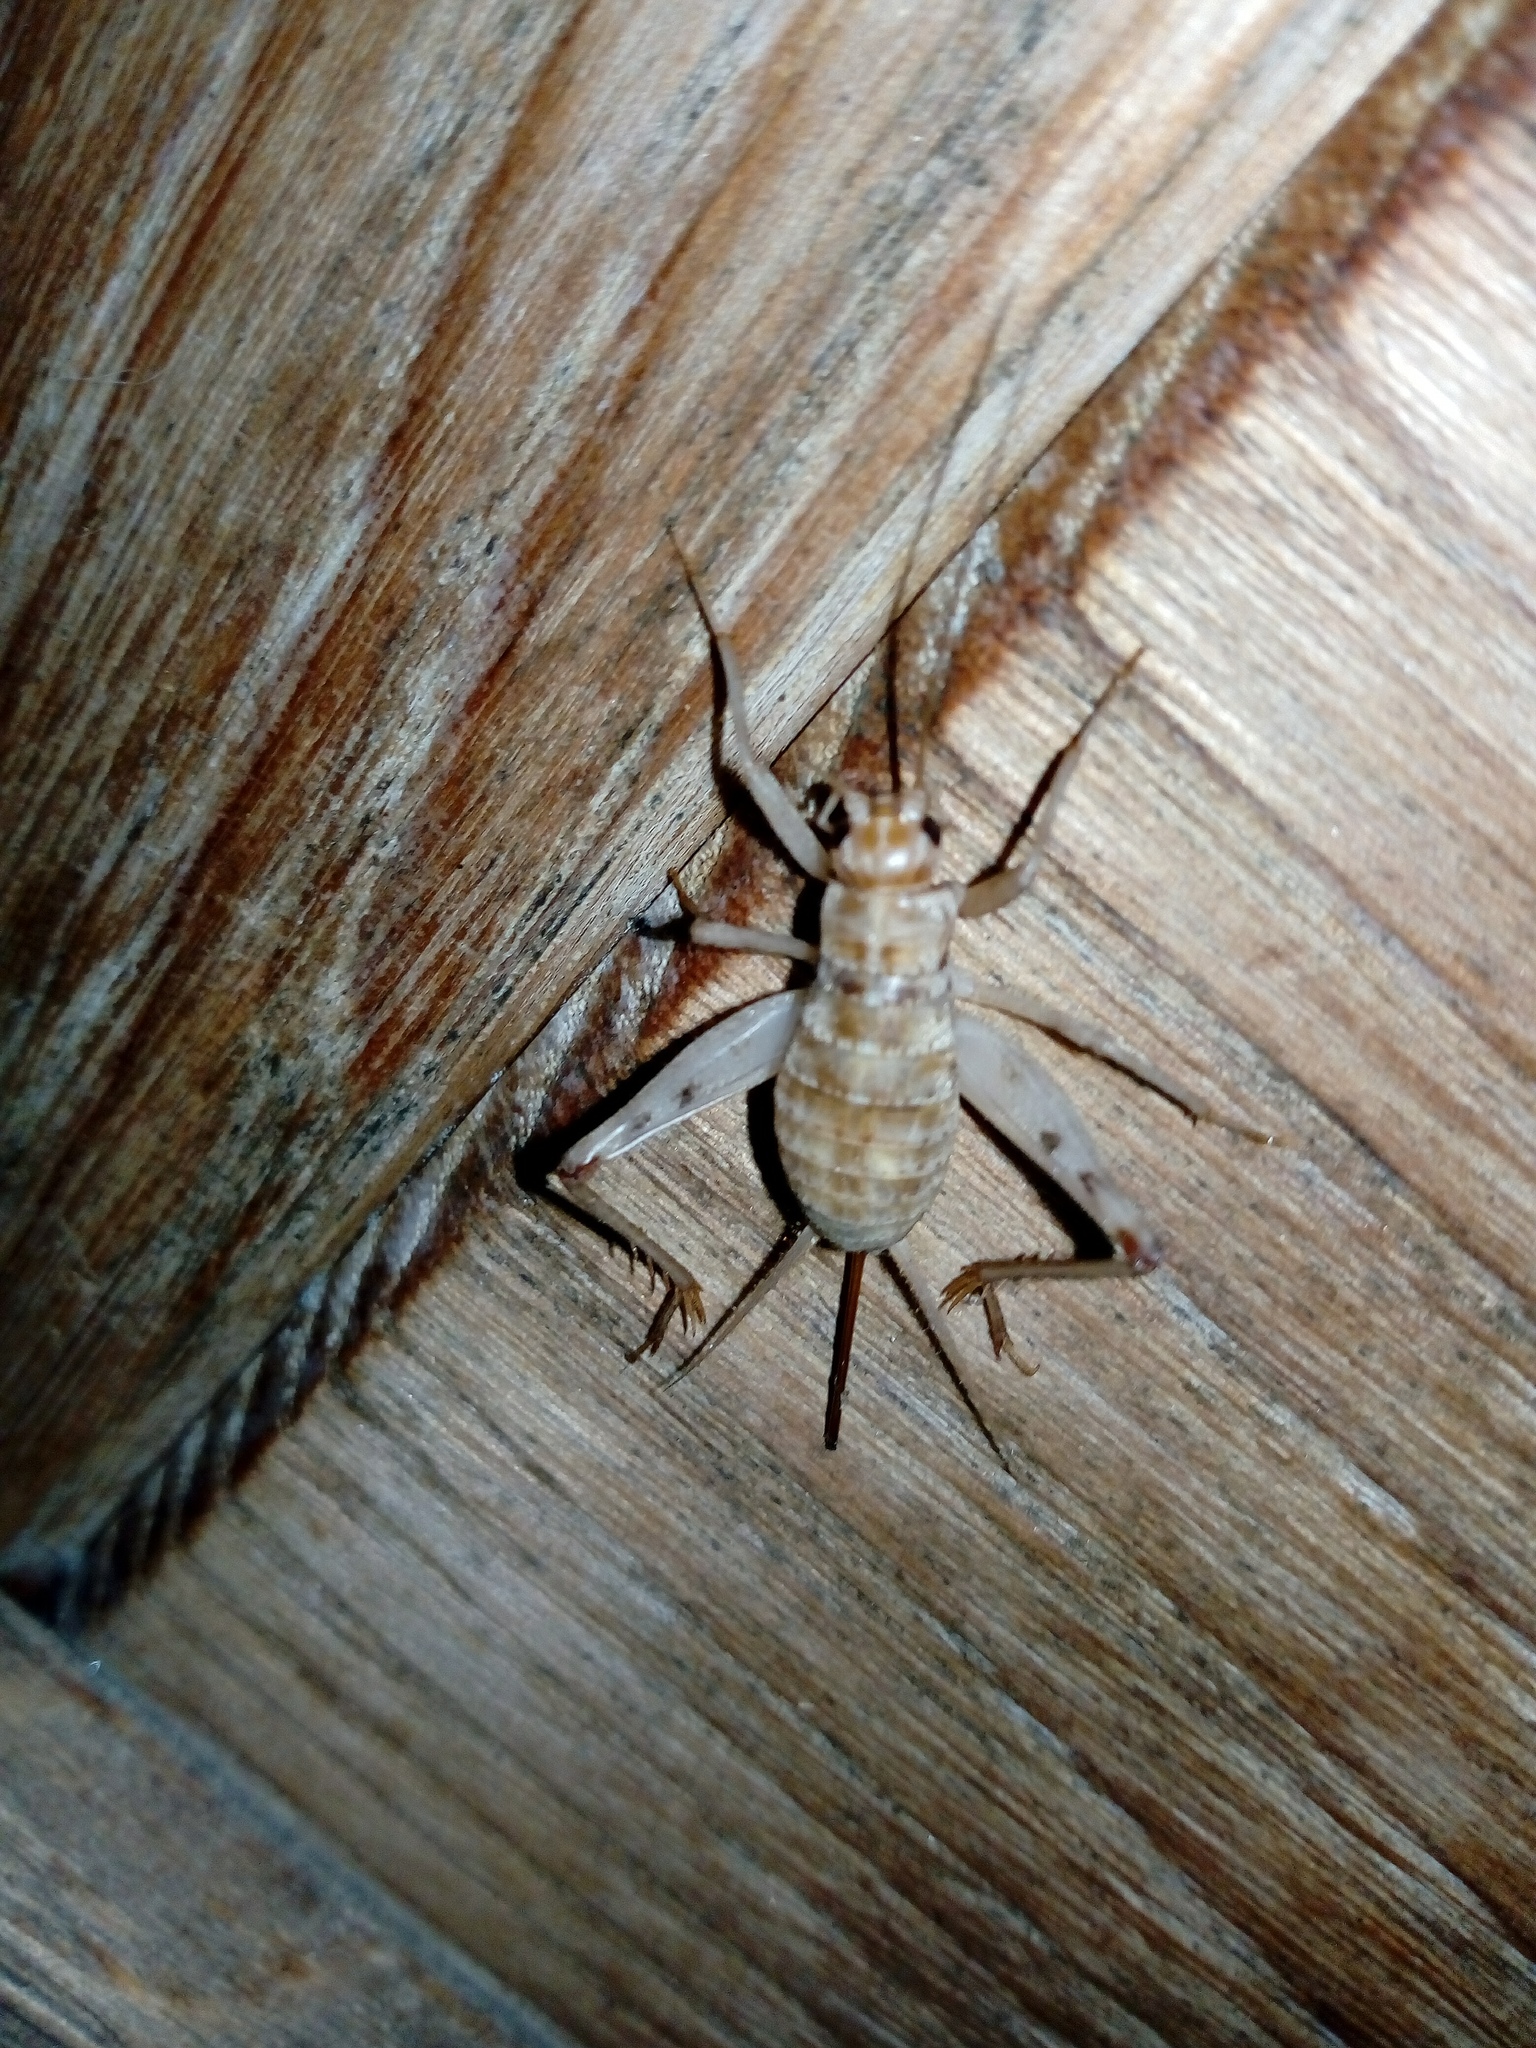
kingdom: Animalia
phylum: Arthropoda
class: Insecta
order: Orthoptera
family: Gryllidae
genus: Gryllomorpha
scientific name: Gryllomorpha dalmatina
